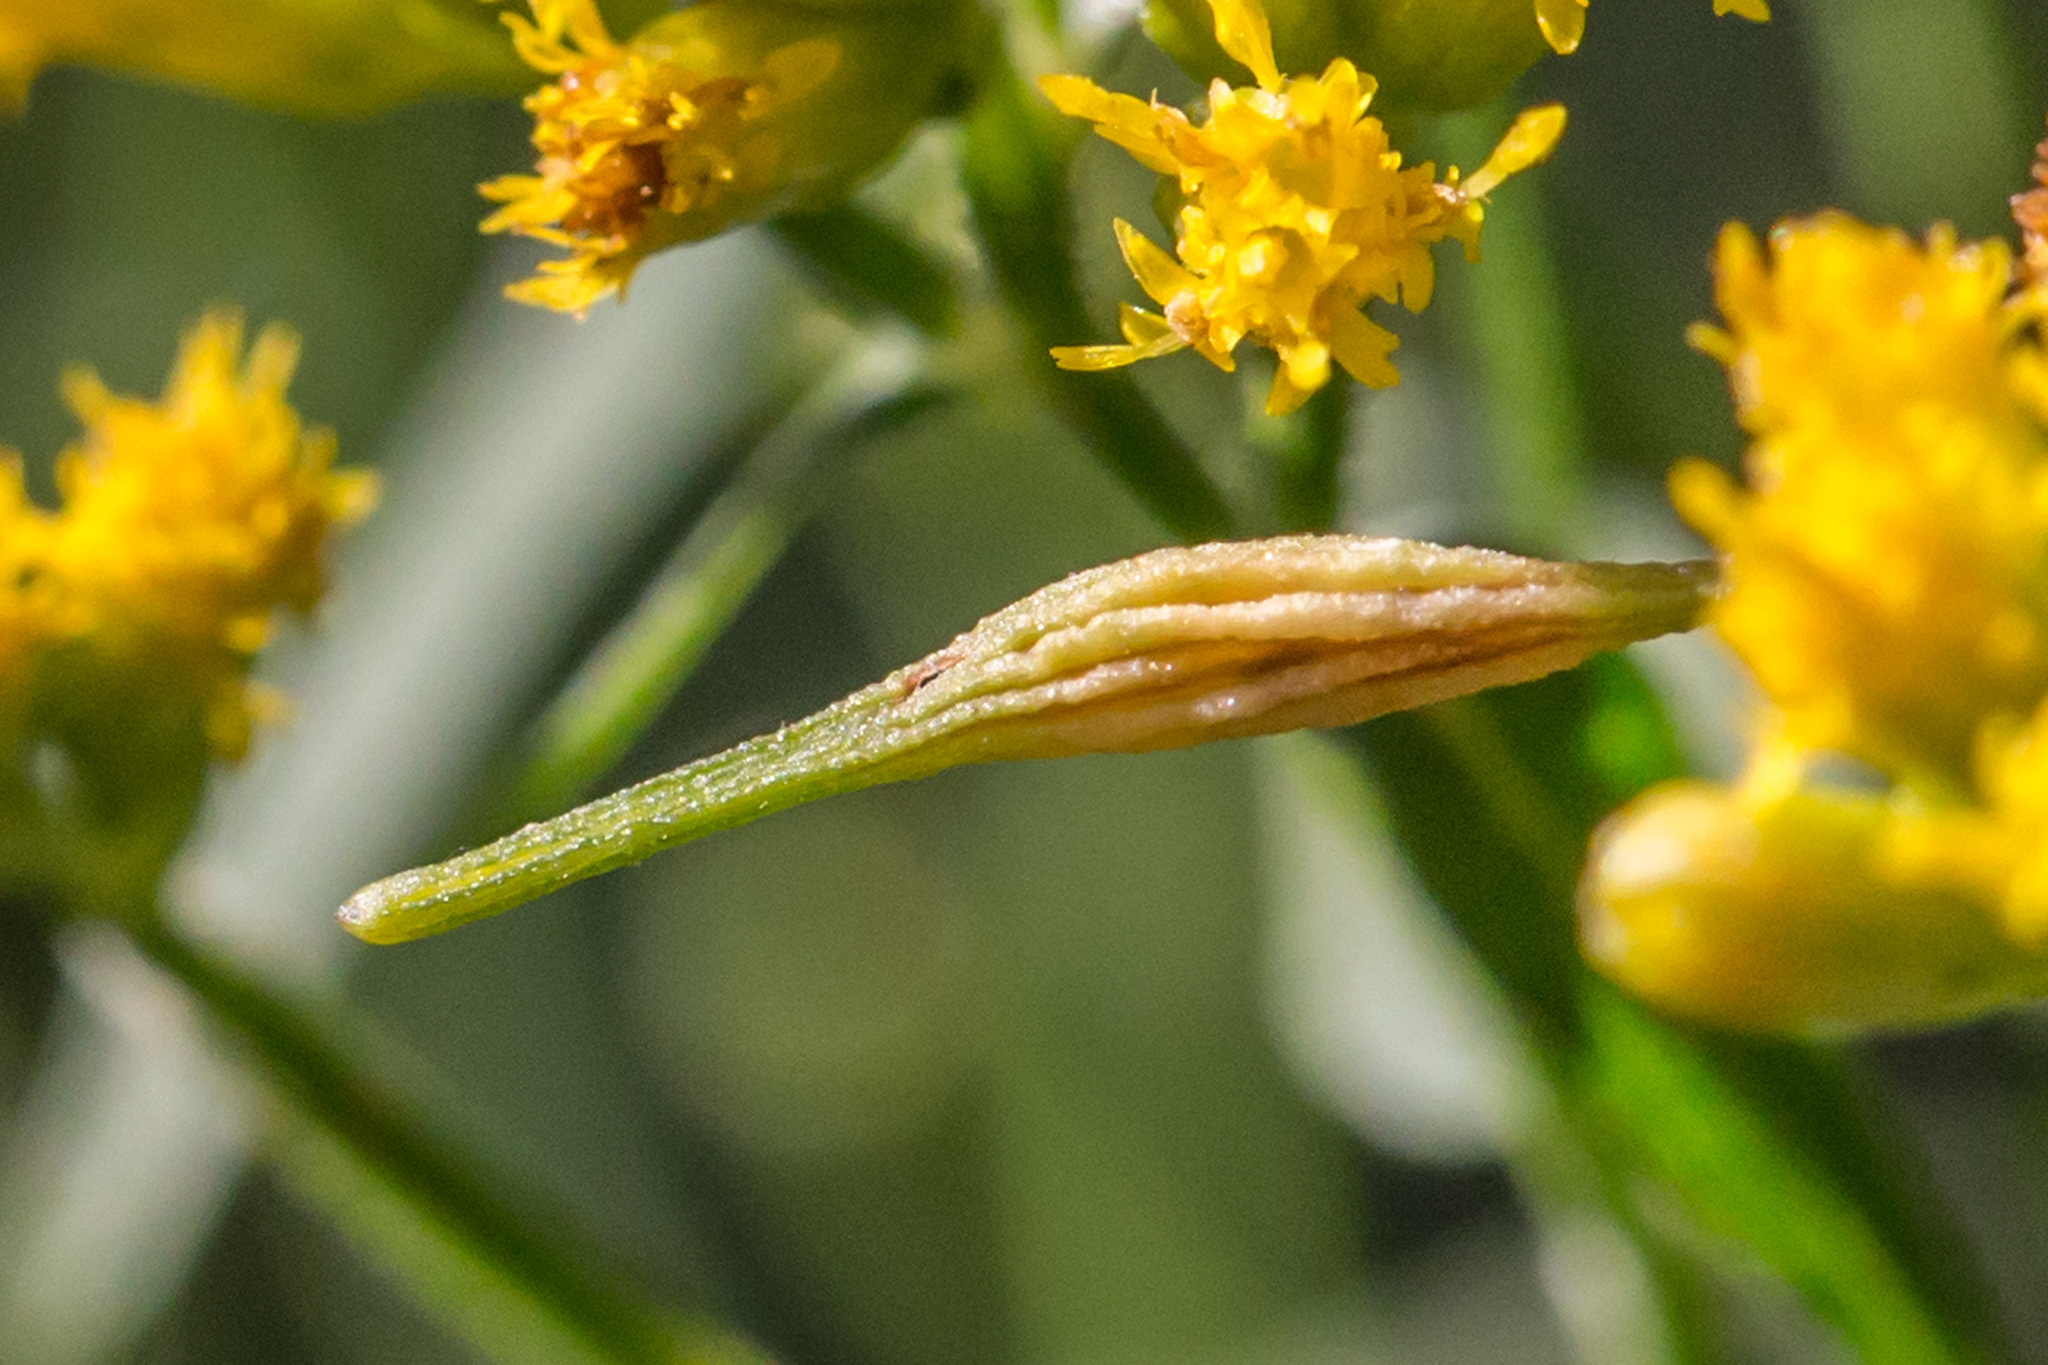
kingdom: Animalia
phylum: Arthropoda
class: Insecta
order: Diptera
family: Cecidomyiidae
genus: Rhopalomyia
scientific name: Rhopalomyia pedicellata
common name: Goldentop pedicellate gall midge
